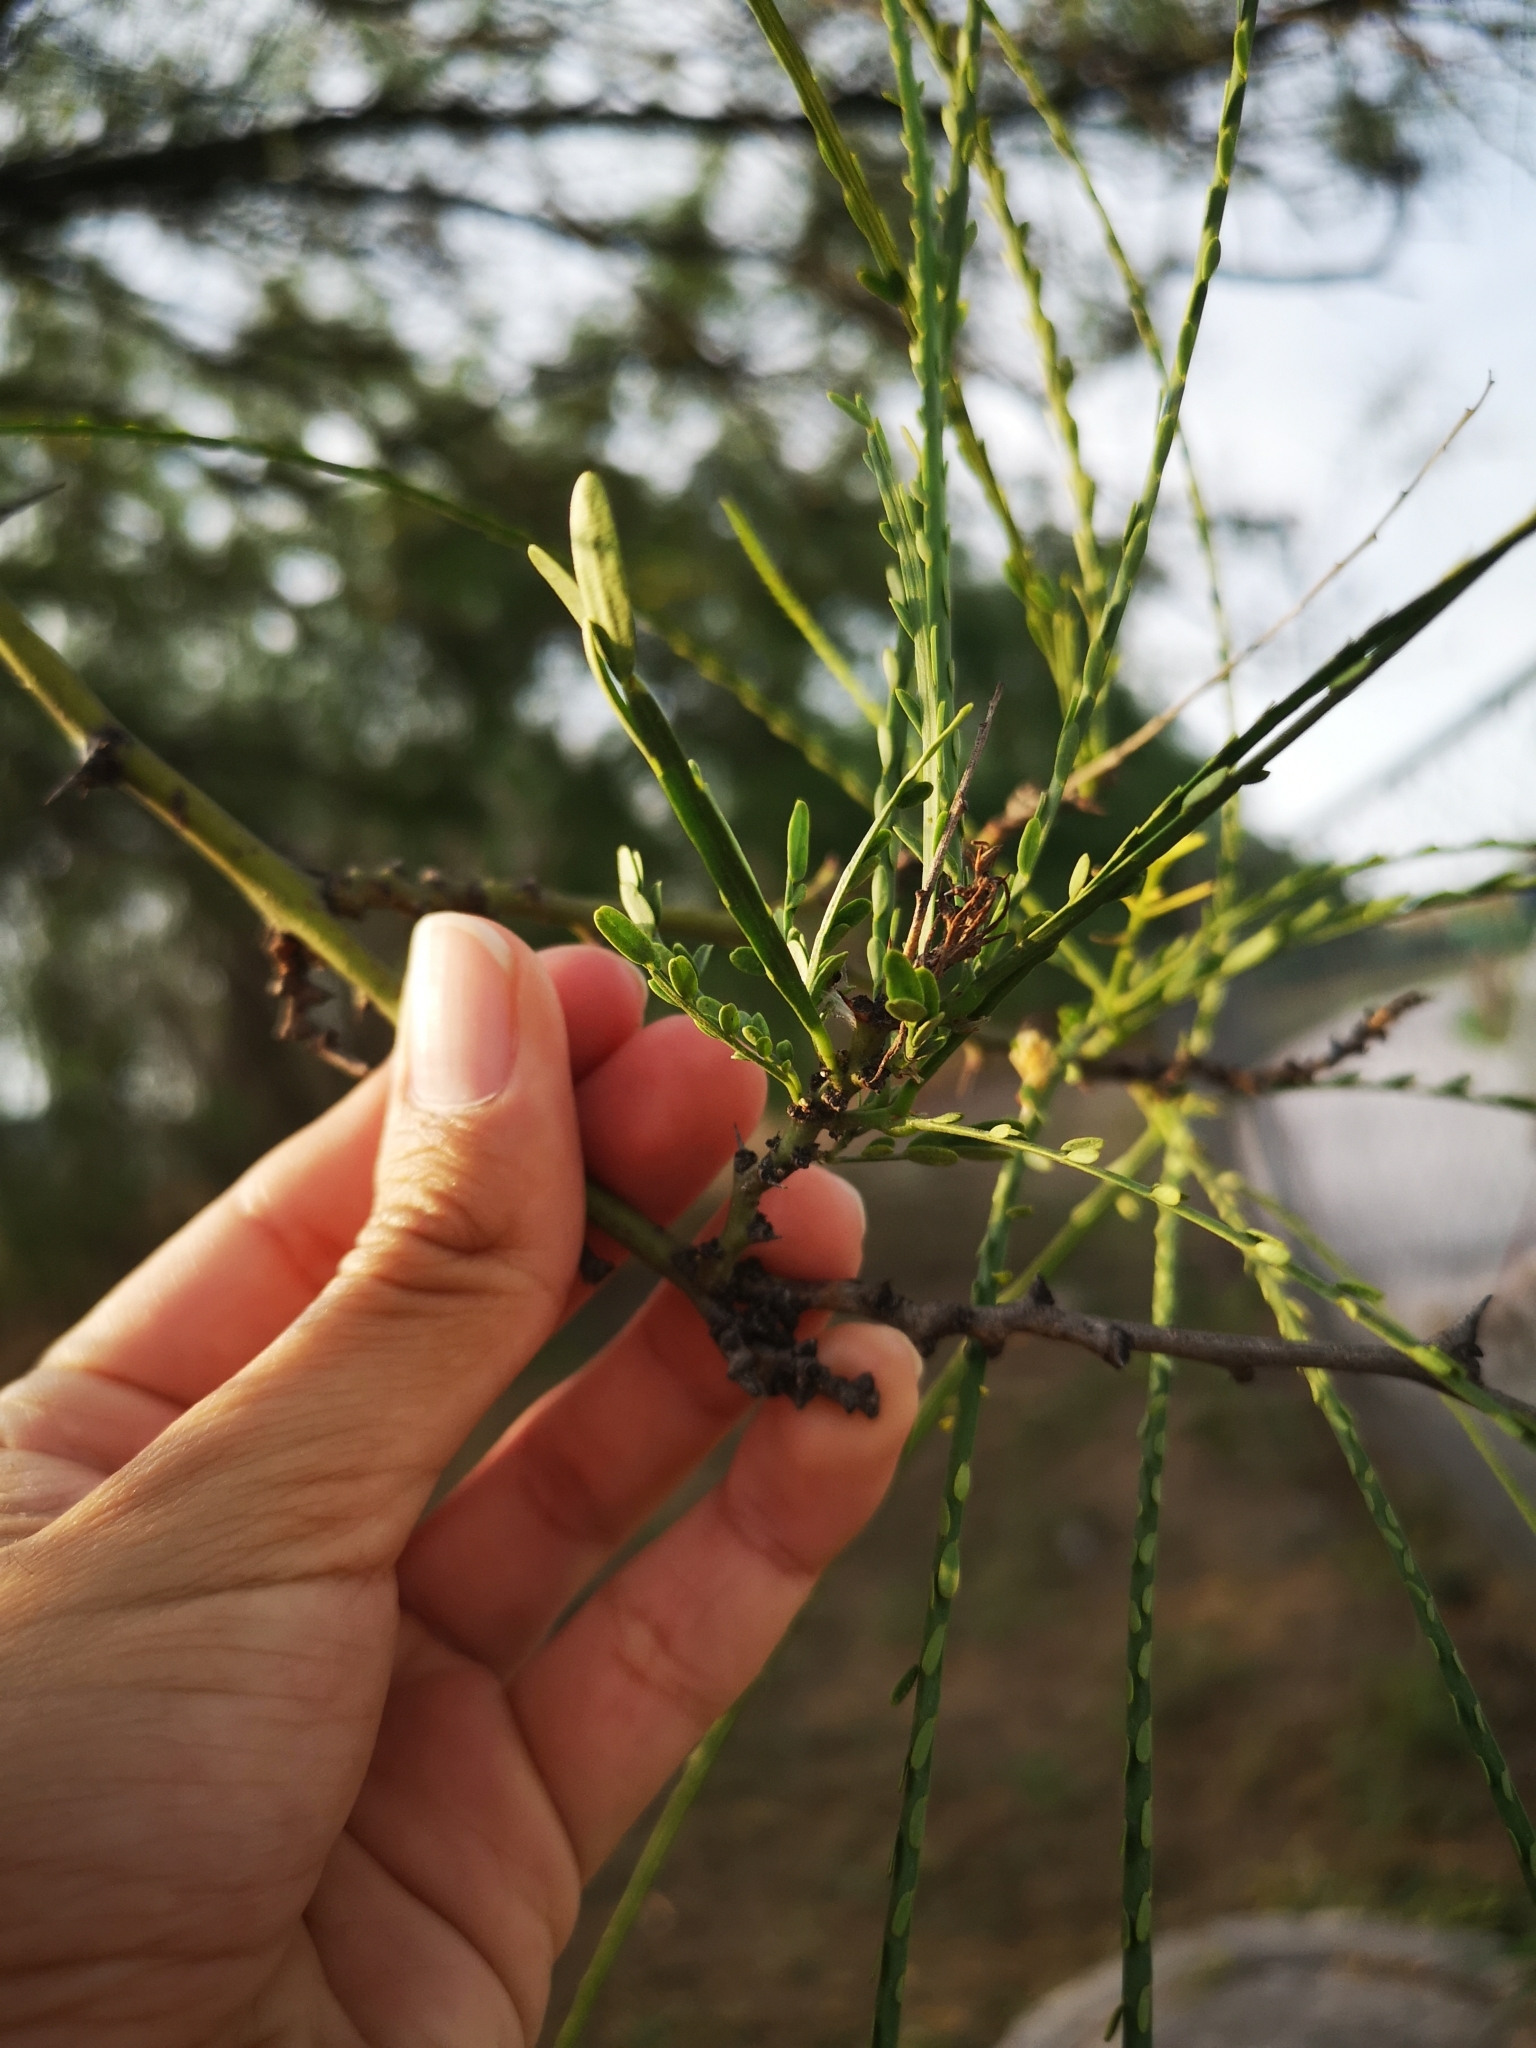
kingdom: Plantae
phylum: Tracheophyta
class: Magnoliopsida
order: Fabales
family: Fabaceae
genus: Parkinsonia
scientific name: Parkinsonia aculeata
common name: Jerusalem thorn
